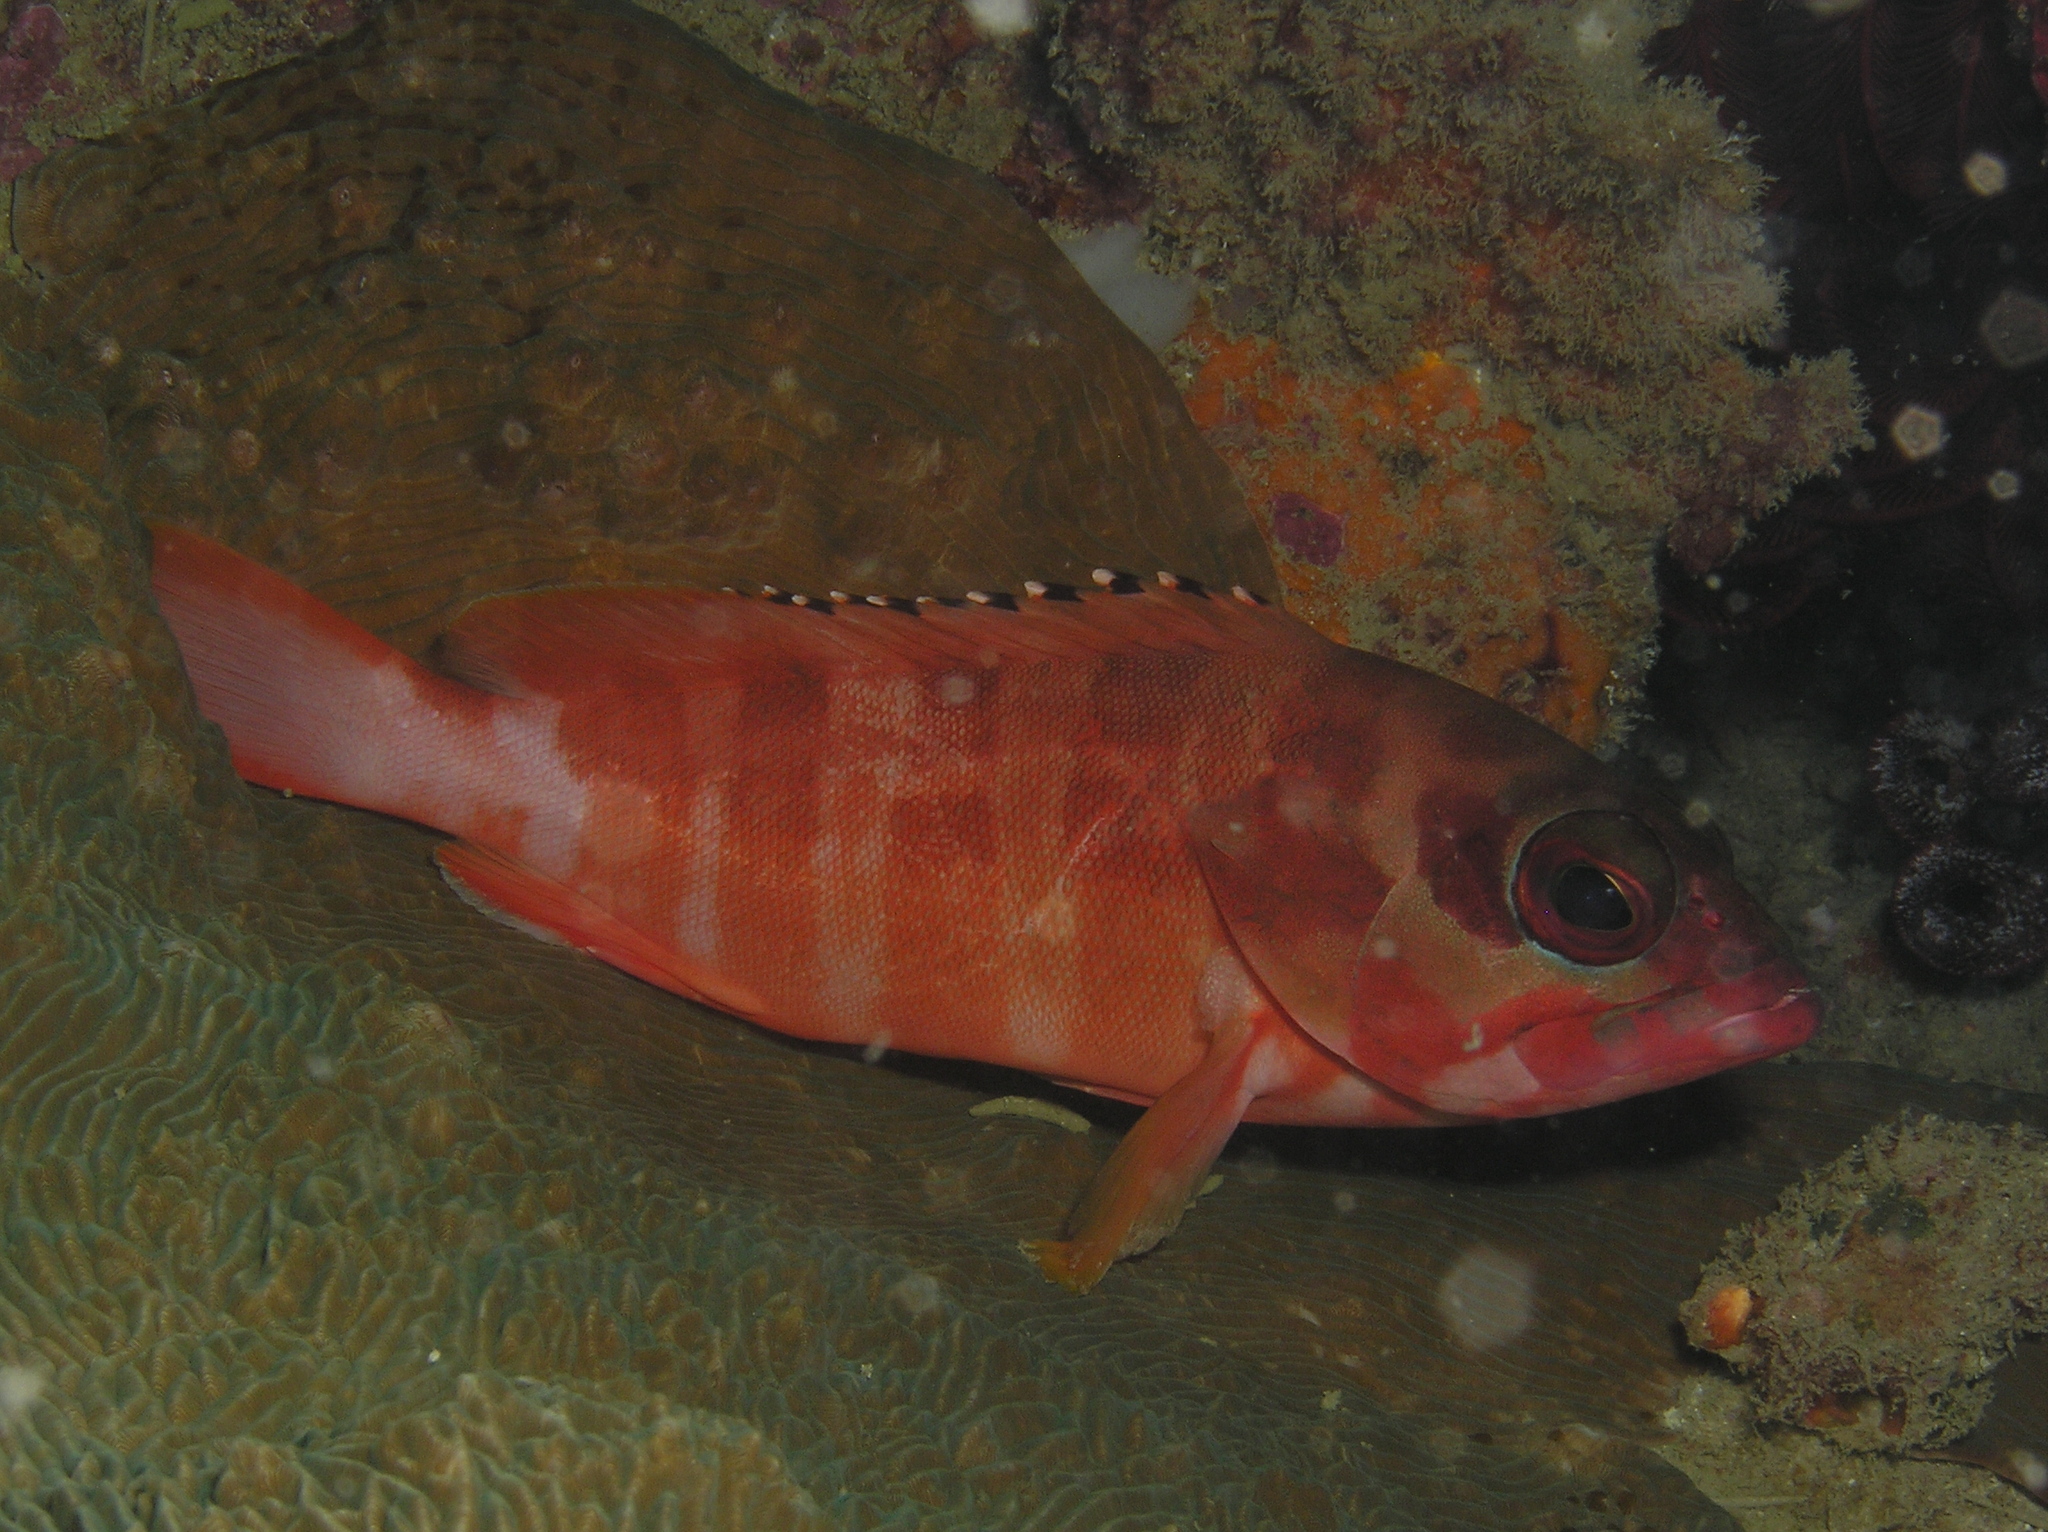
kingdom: Animalia
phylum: Chordata
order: Perciformes
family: Serranidae
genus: Epinephelus
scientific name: Epinephelus fasciatus
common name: Blacktip grouper
